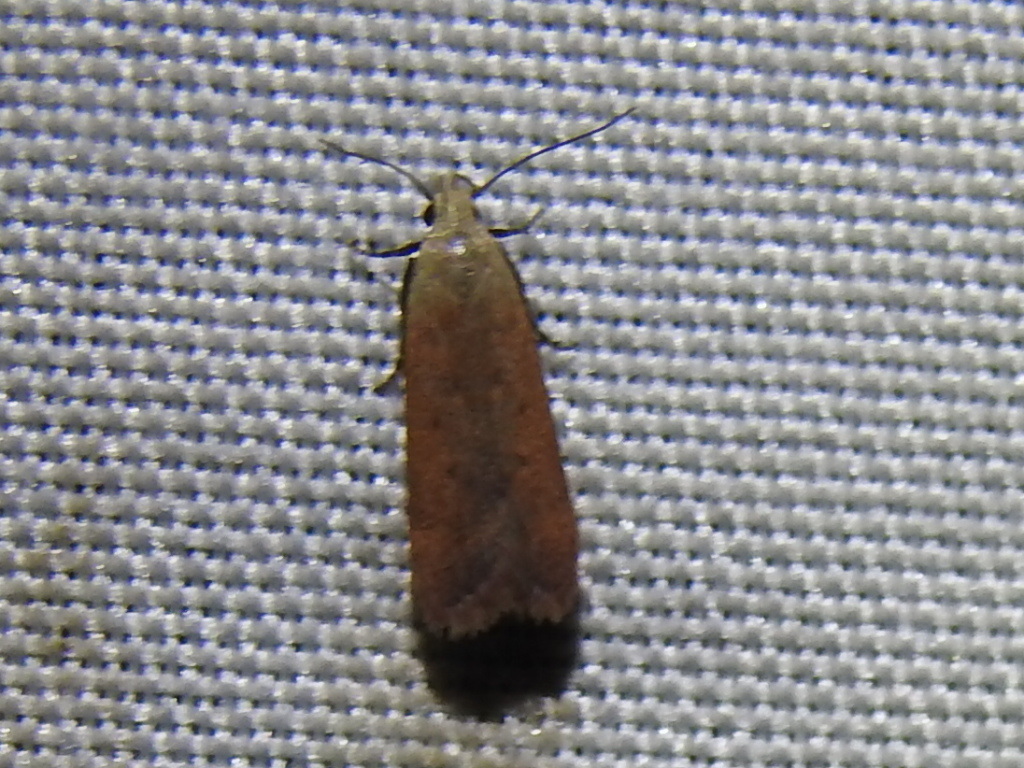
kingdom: Animalia
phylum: Arthropoda
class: Insecta
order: Lepidoptera
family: Gelechiidae
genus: Anacampsis
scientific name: Anacampsis fullonella
